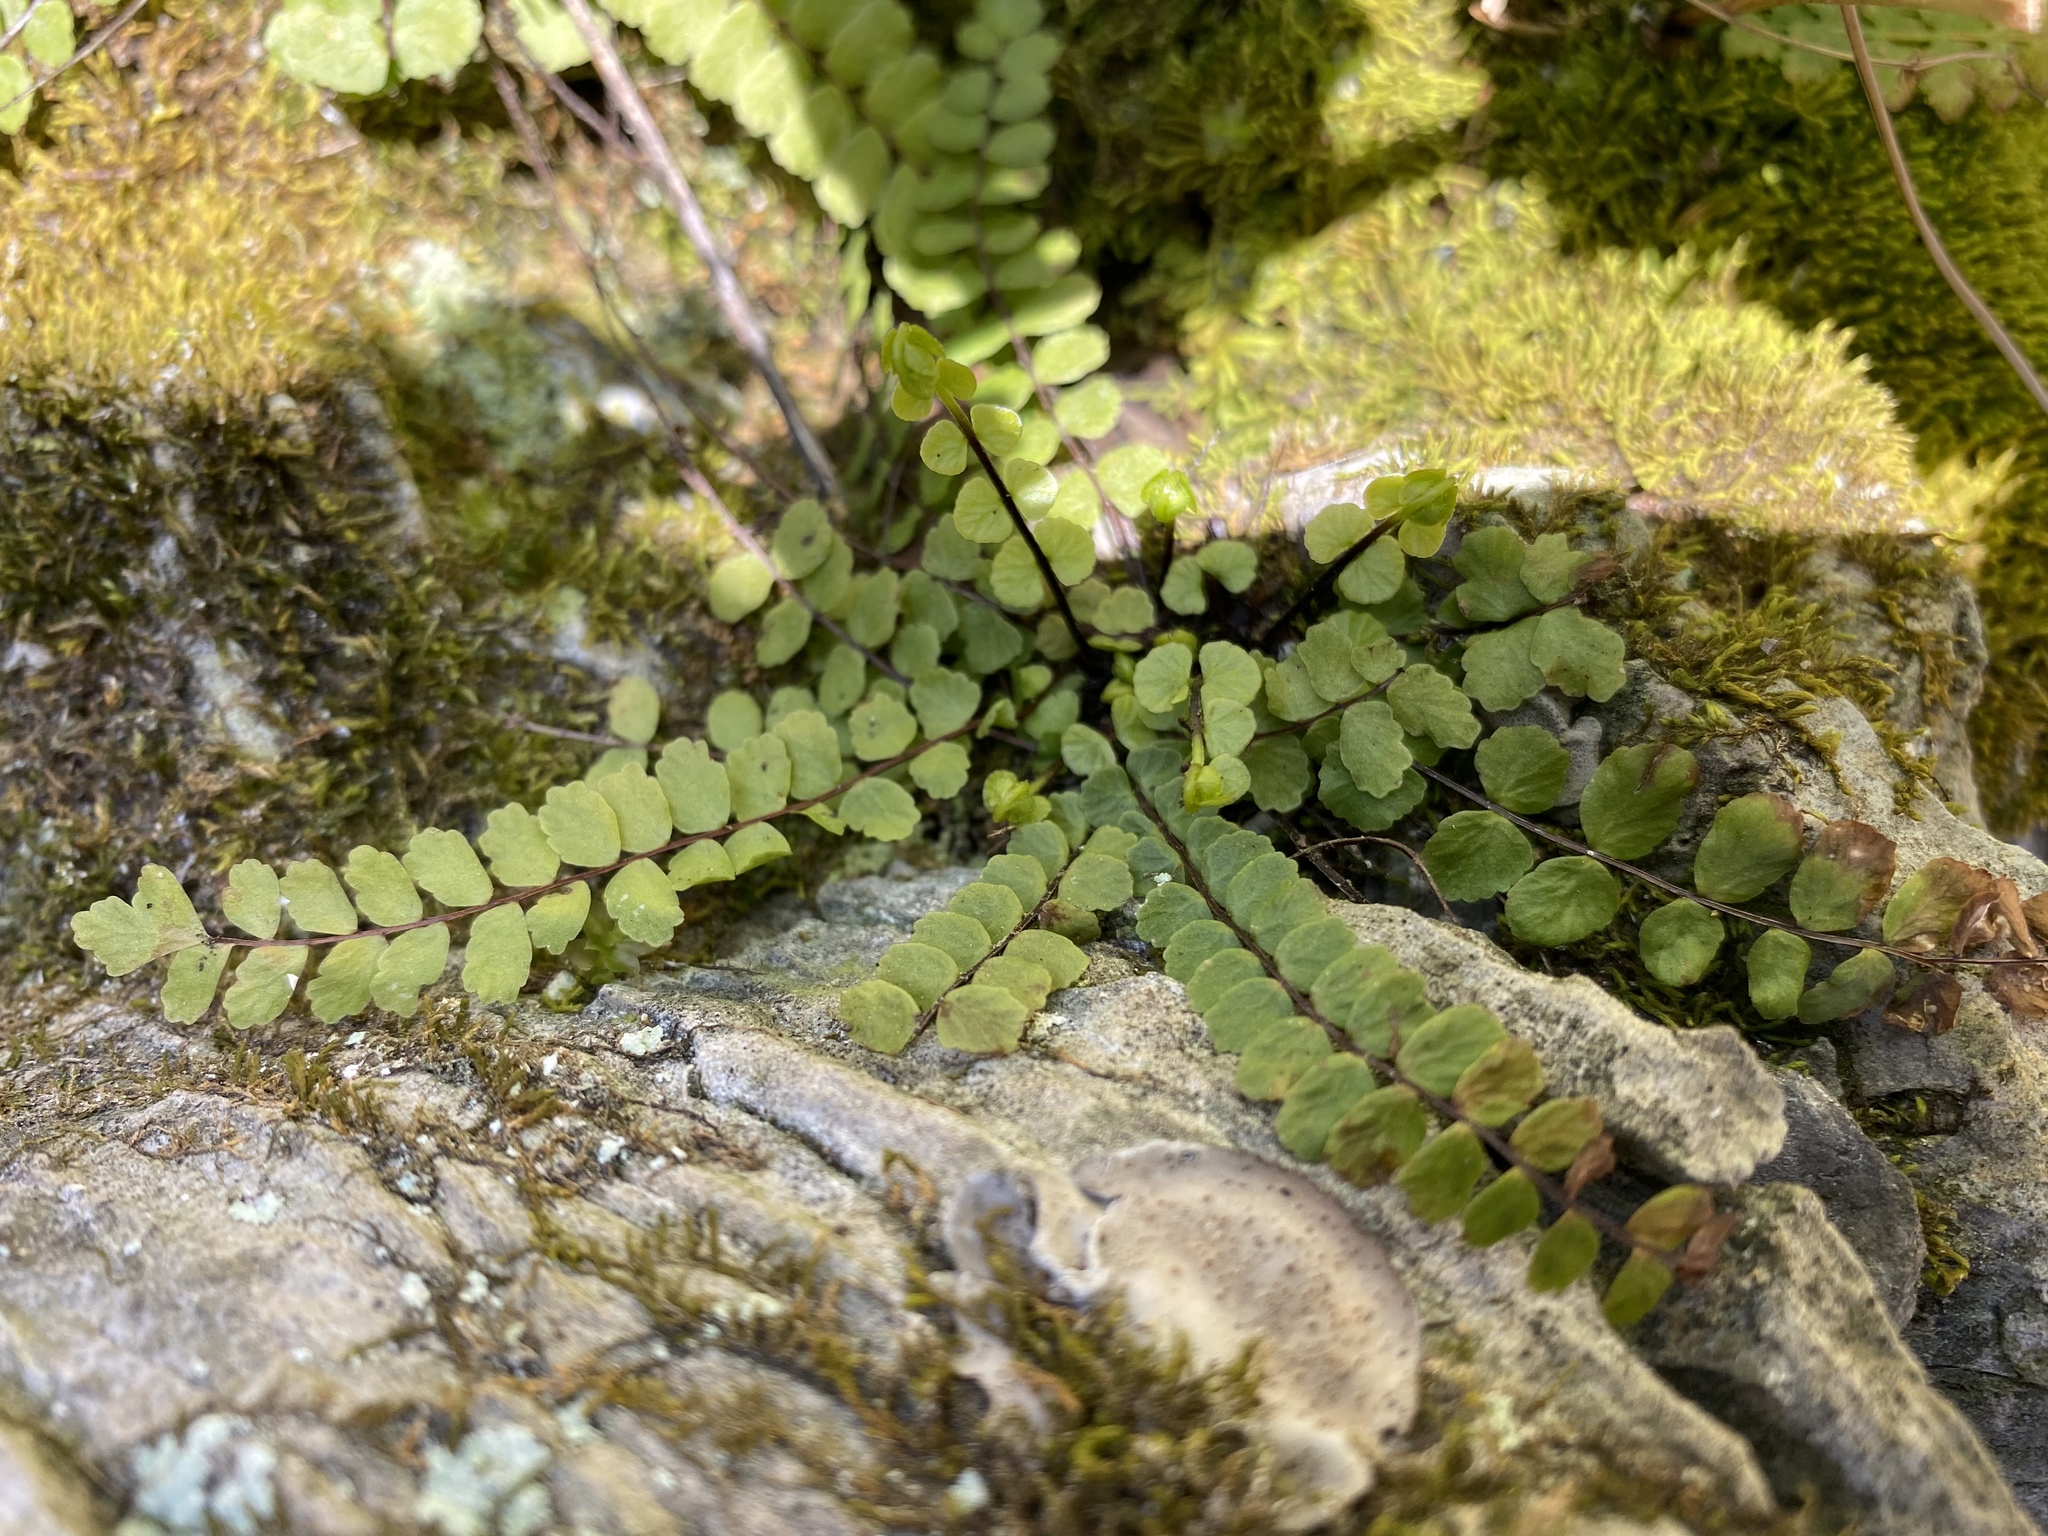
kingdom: Plantae
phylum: Tracheophyta
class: Polypodiopsida
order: Polypodiales
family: Aspleniaceae
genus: Asplenium
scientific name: Asplenium trichomanes
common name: Maidenhair spleenwort
